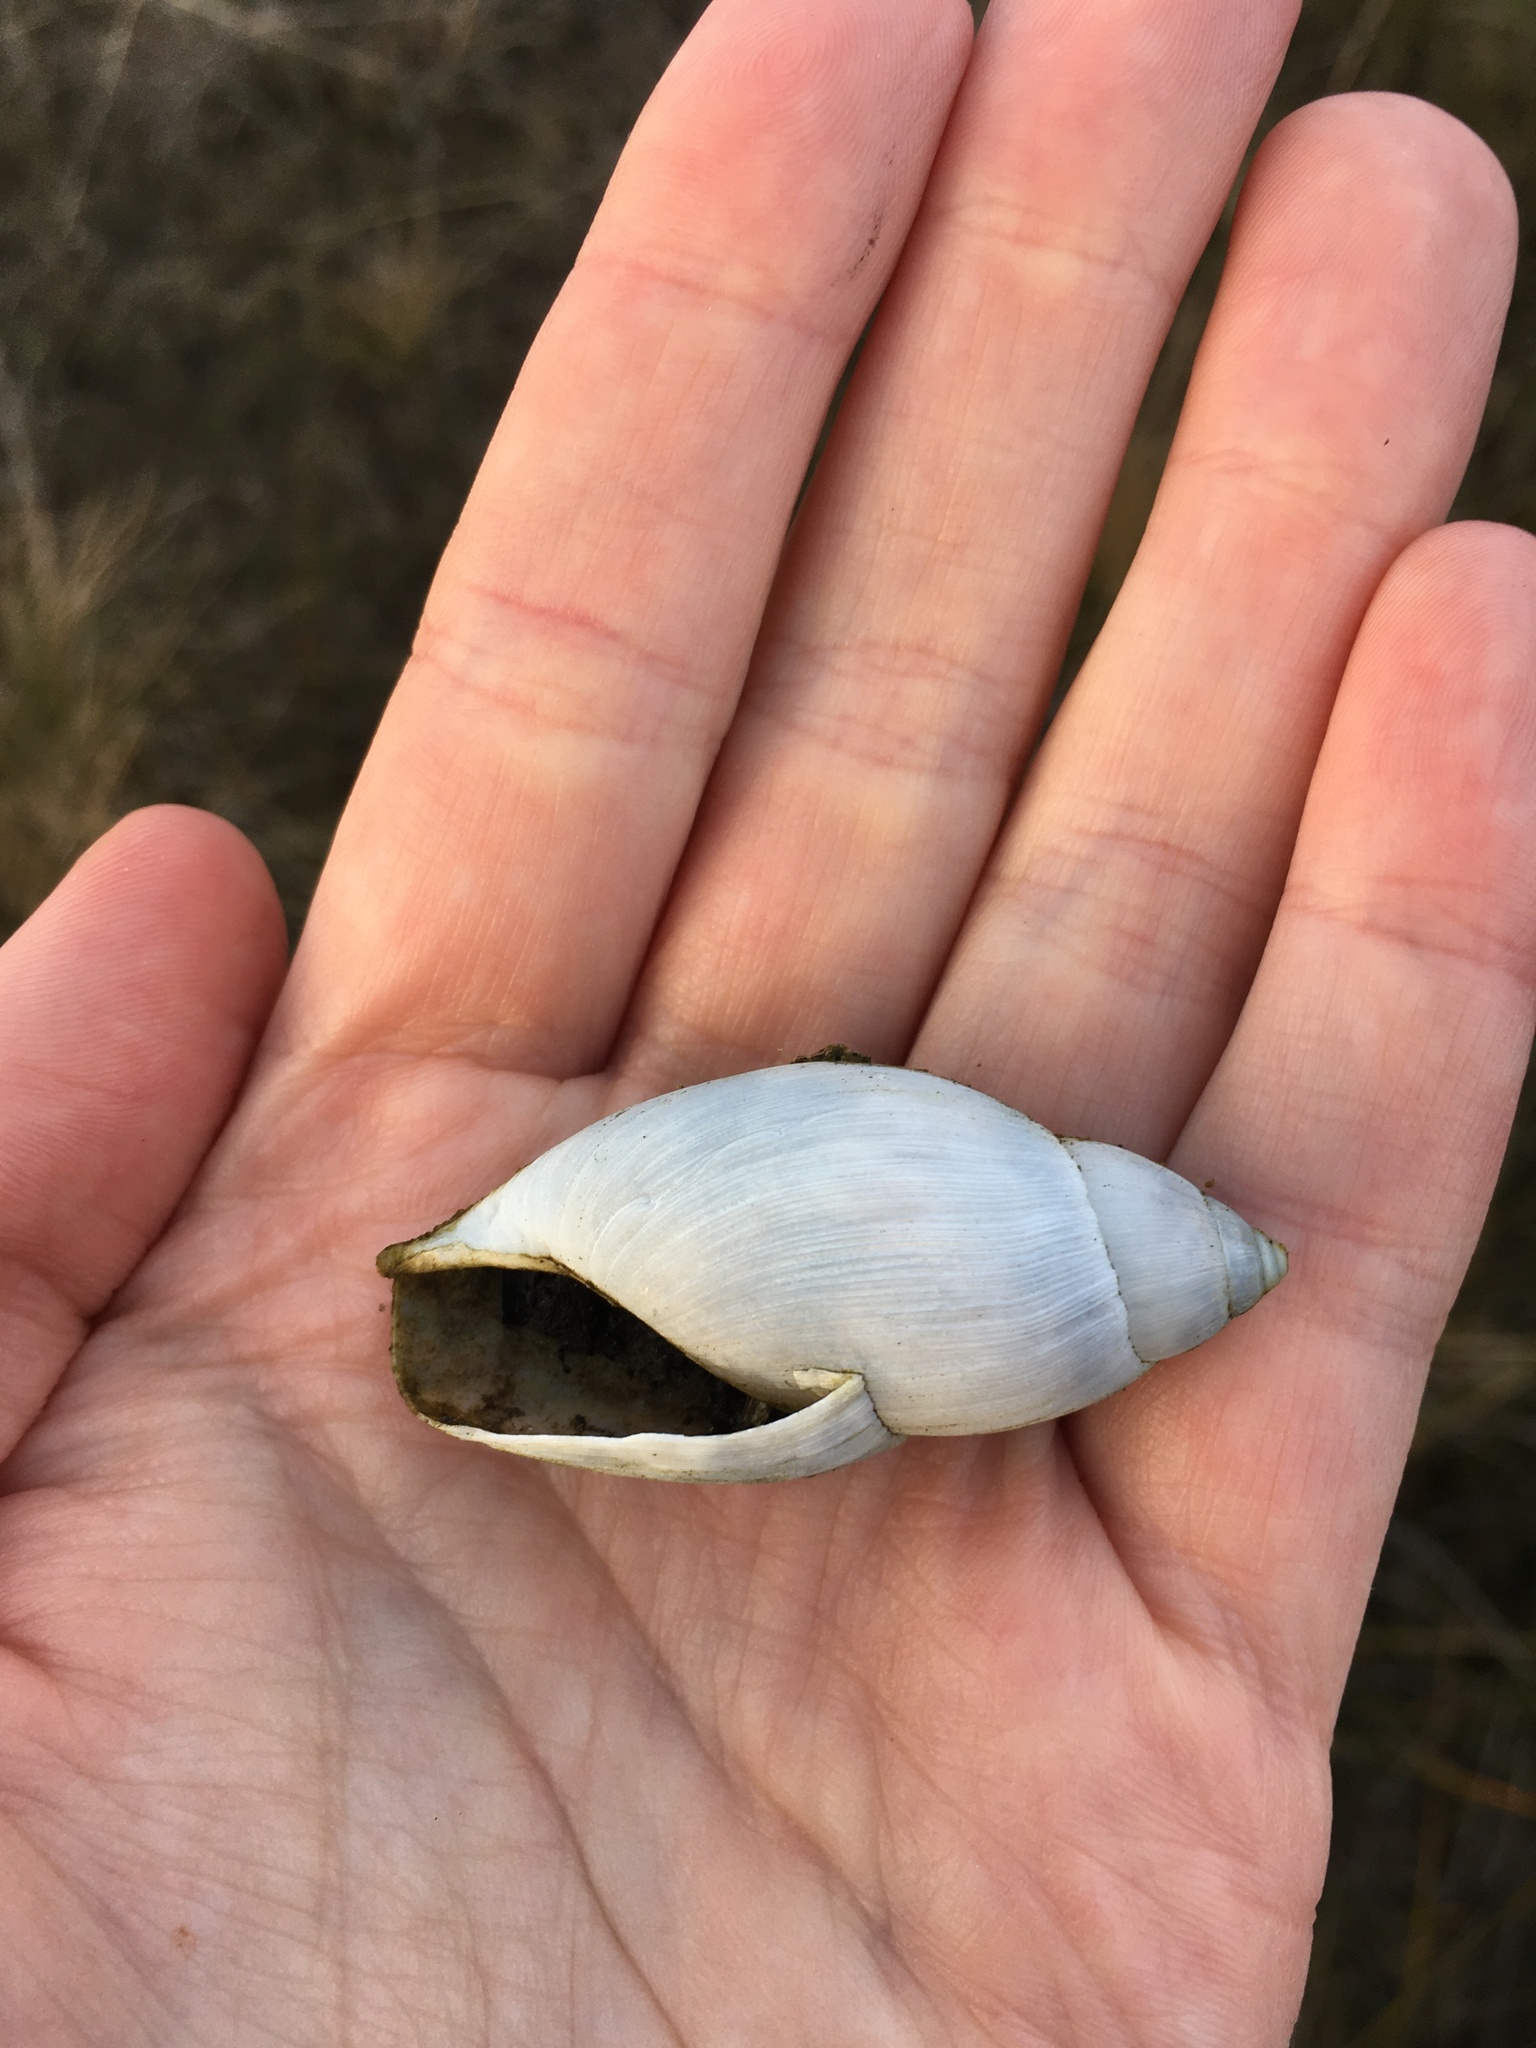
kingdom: Animalia
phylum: Mollusca
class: Gastropoda
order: Stylommatophora
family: Spiraxidae
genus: Euglandina
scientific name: Euglandina rosea
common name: Rosy wolfsnail
